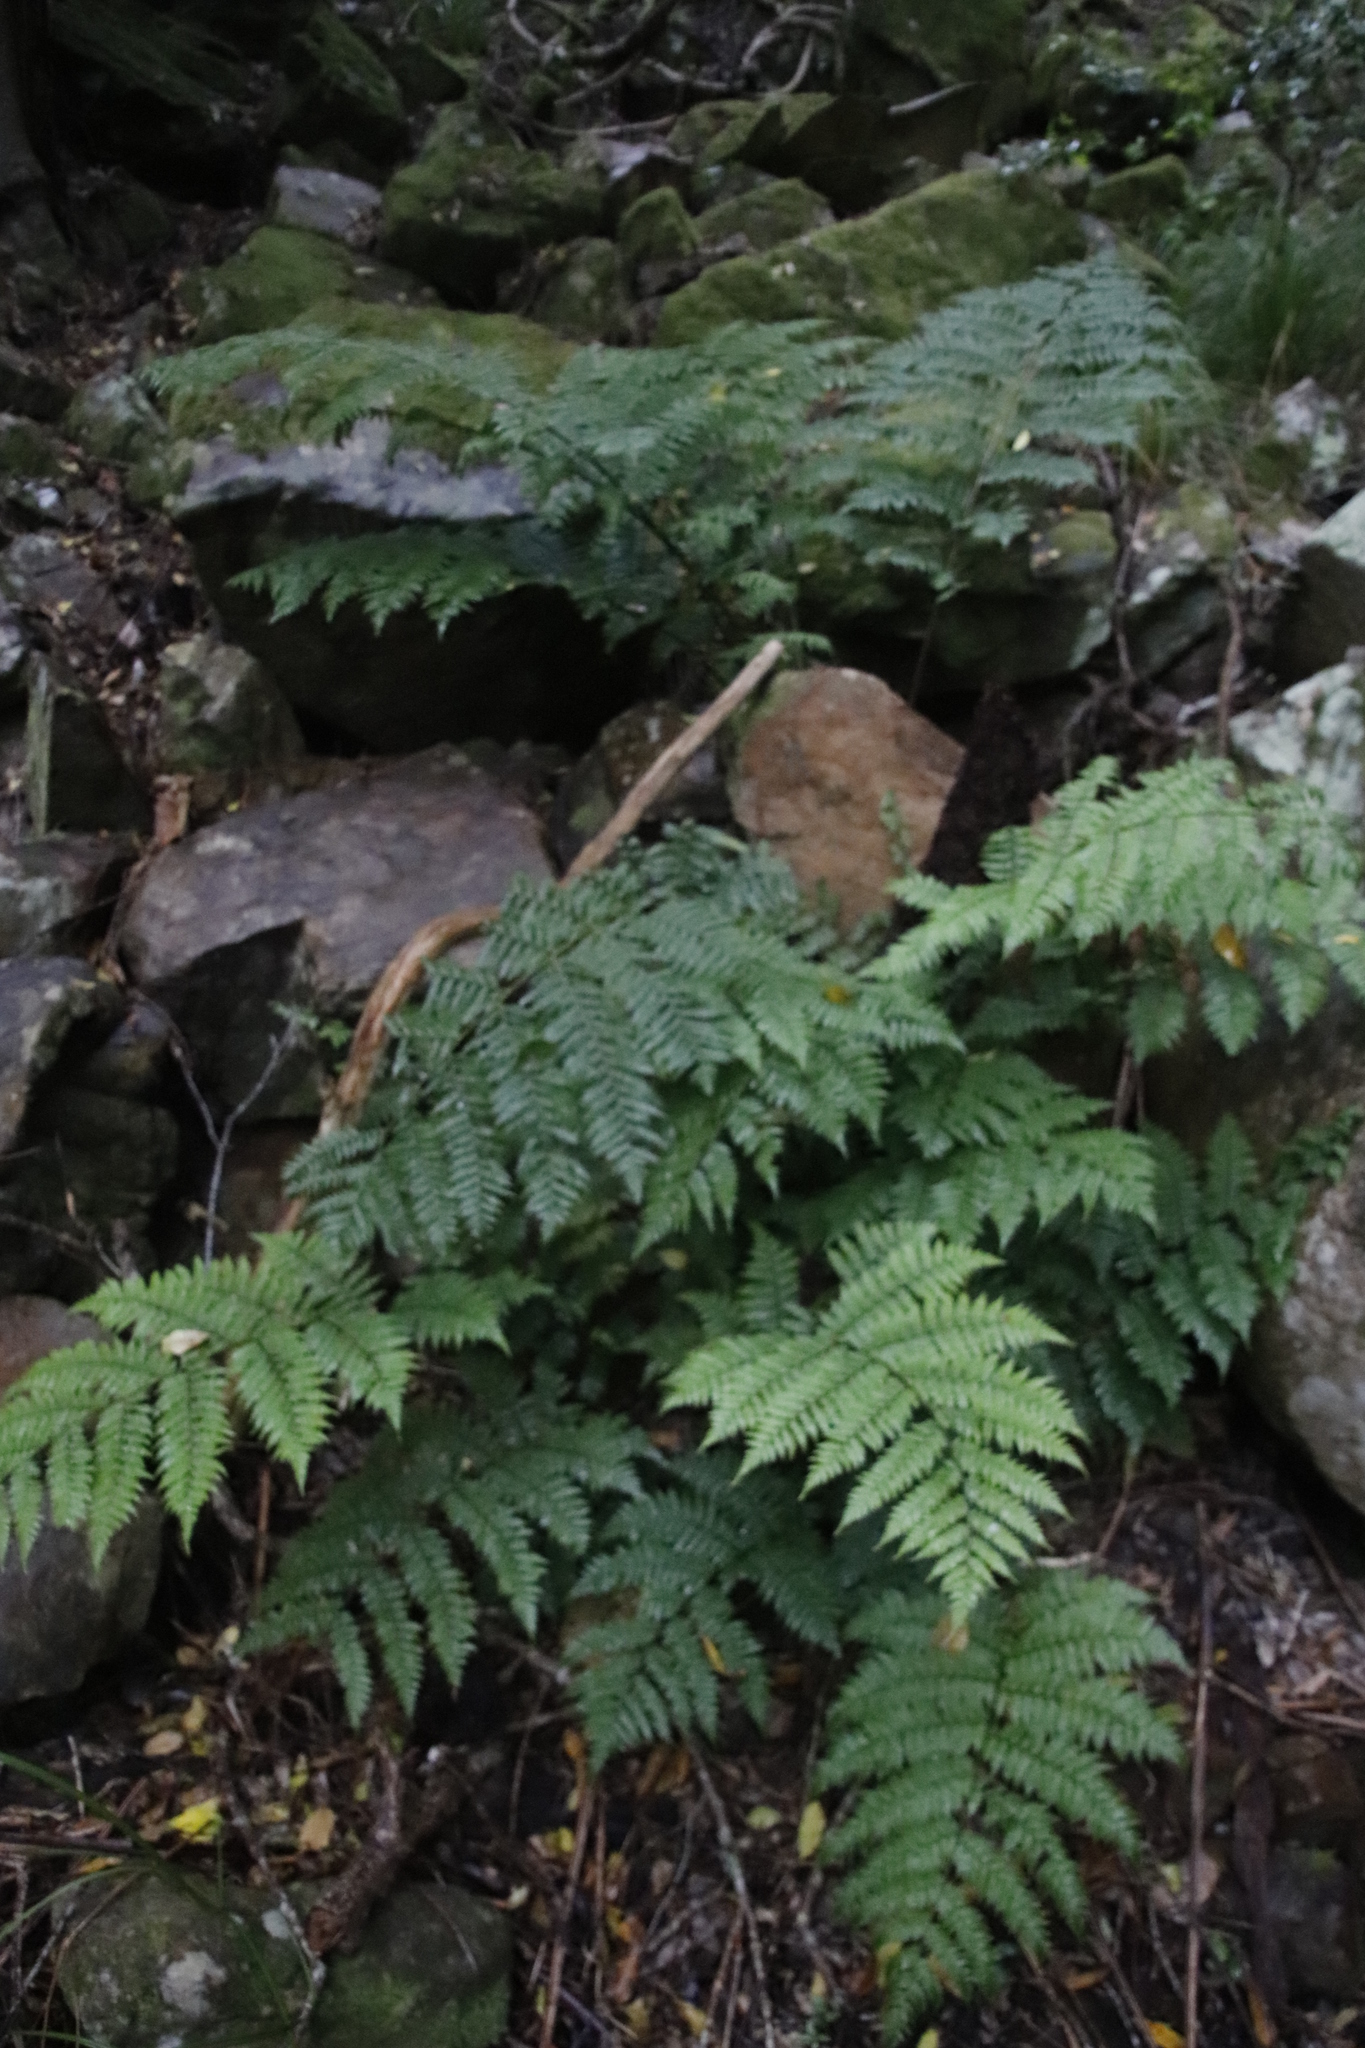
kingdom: Plantae
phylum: Tracheophyta
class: Polypodiopsida
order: Cyatheales
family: Cyatheaceae
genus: Gymnosphaera
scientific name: Gymnosphaera capensis
